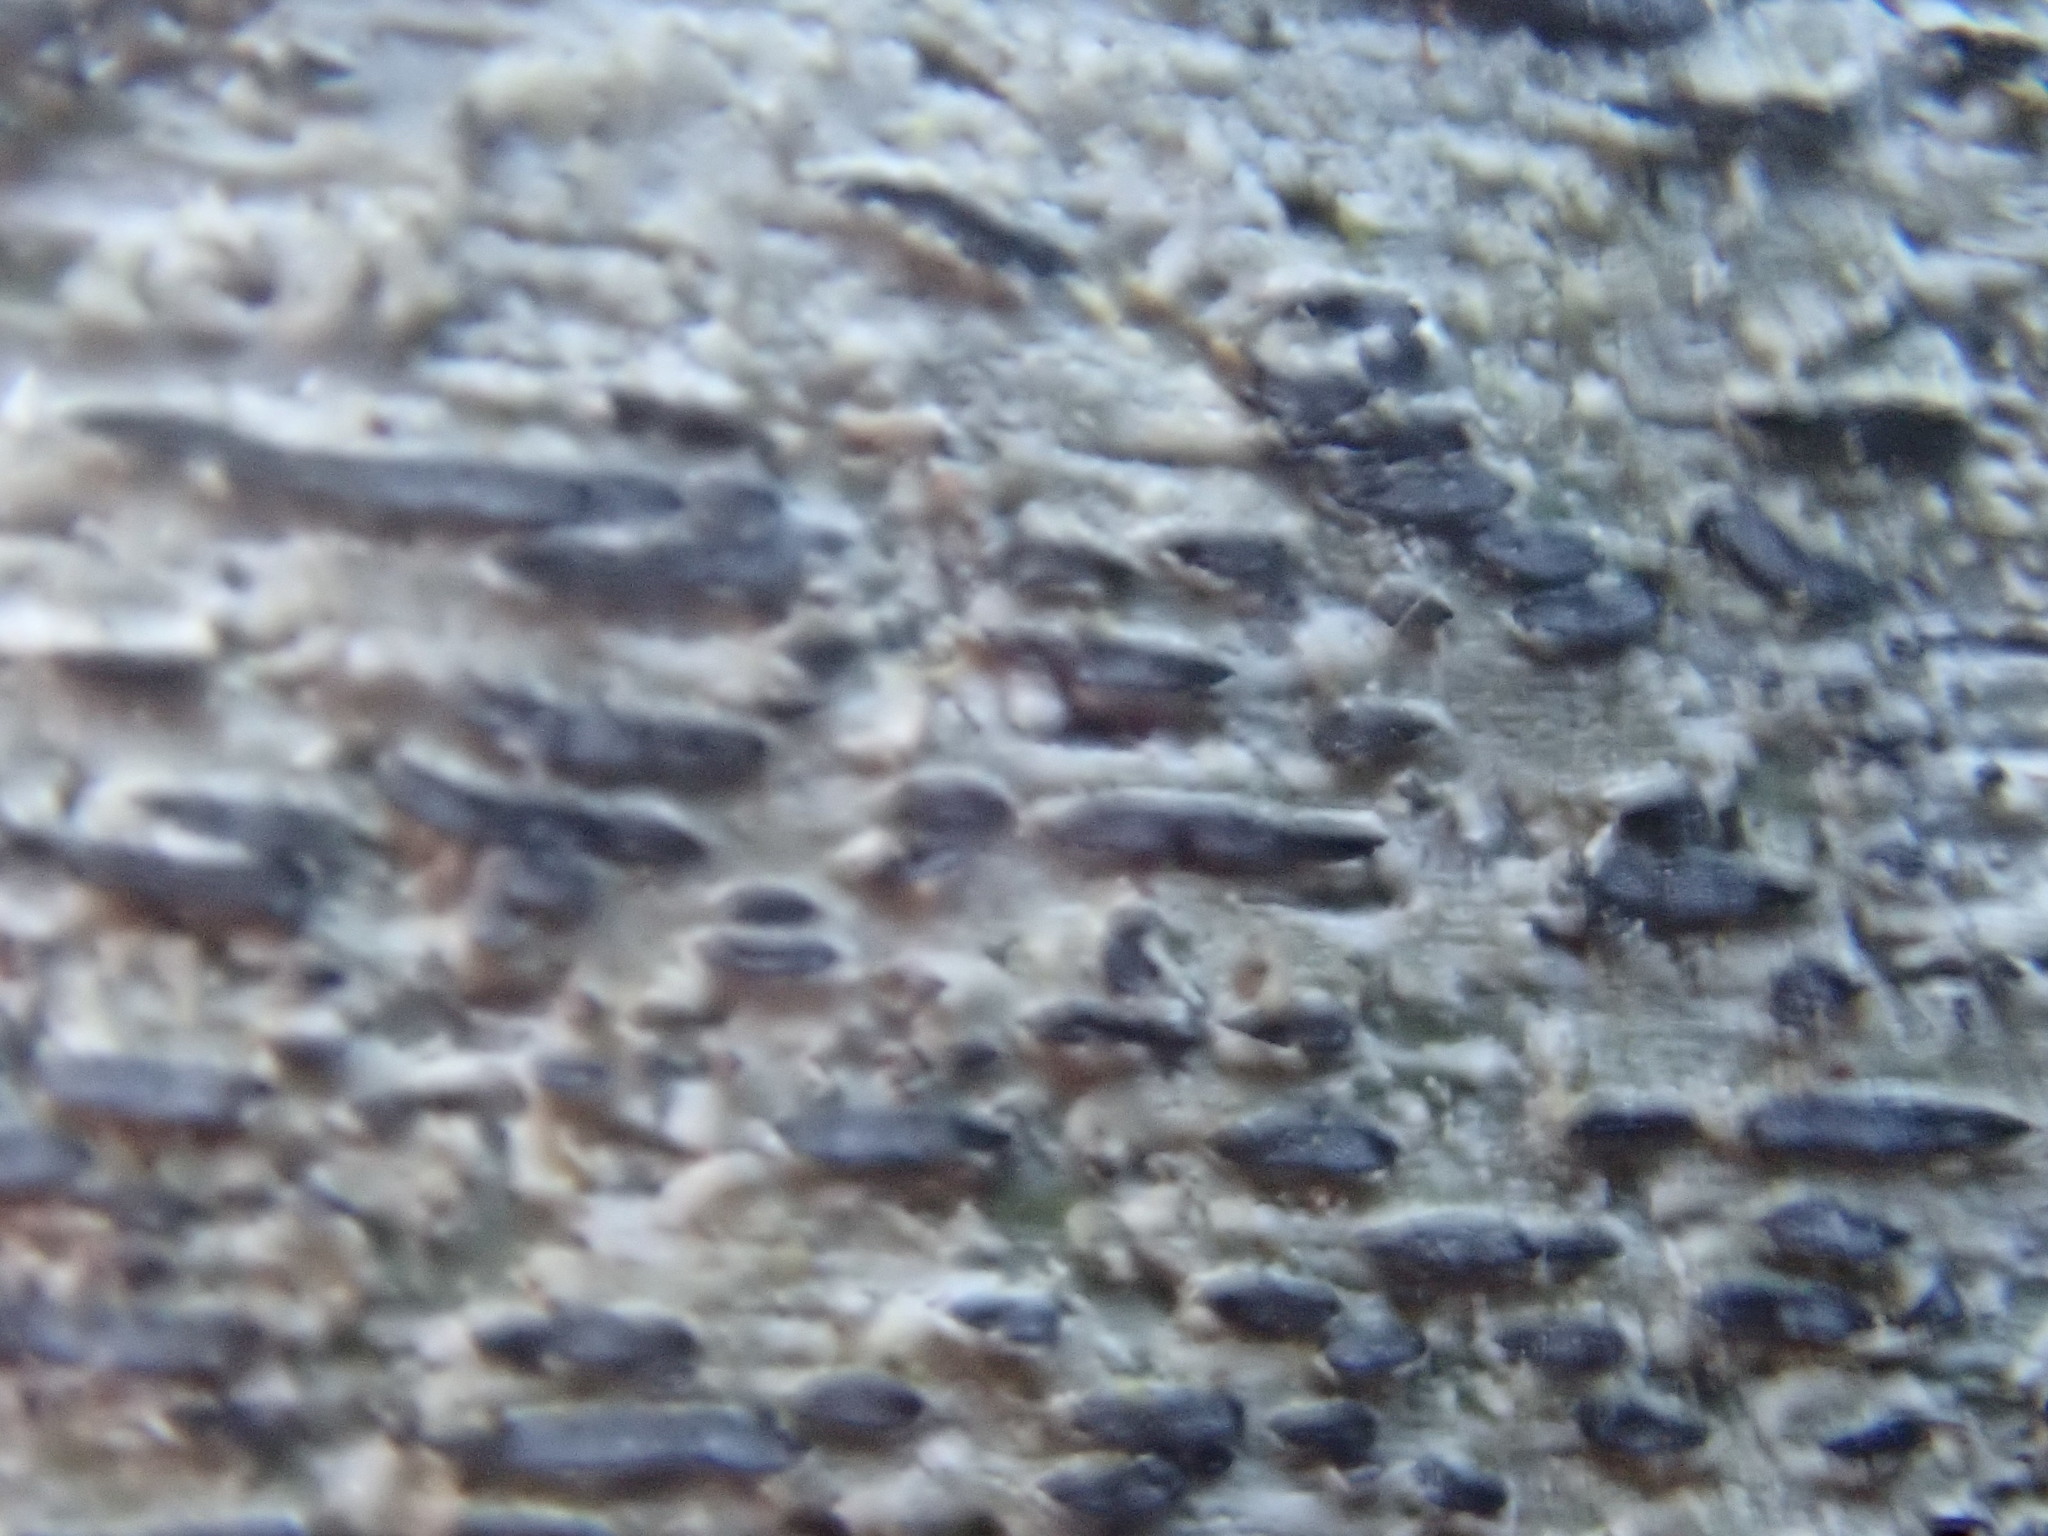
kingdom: Fungi
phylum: Ascomycota
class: Lecanoromycetes
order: Ostropales
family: Graphidaceae
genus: Graphis
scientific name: Graphis scripta
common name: Script lichen
